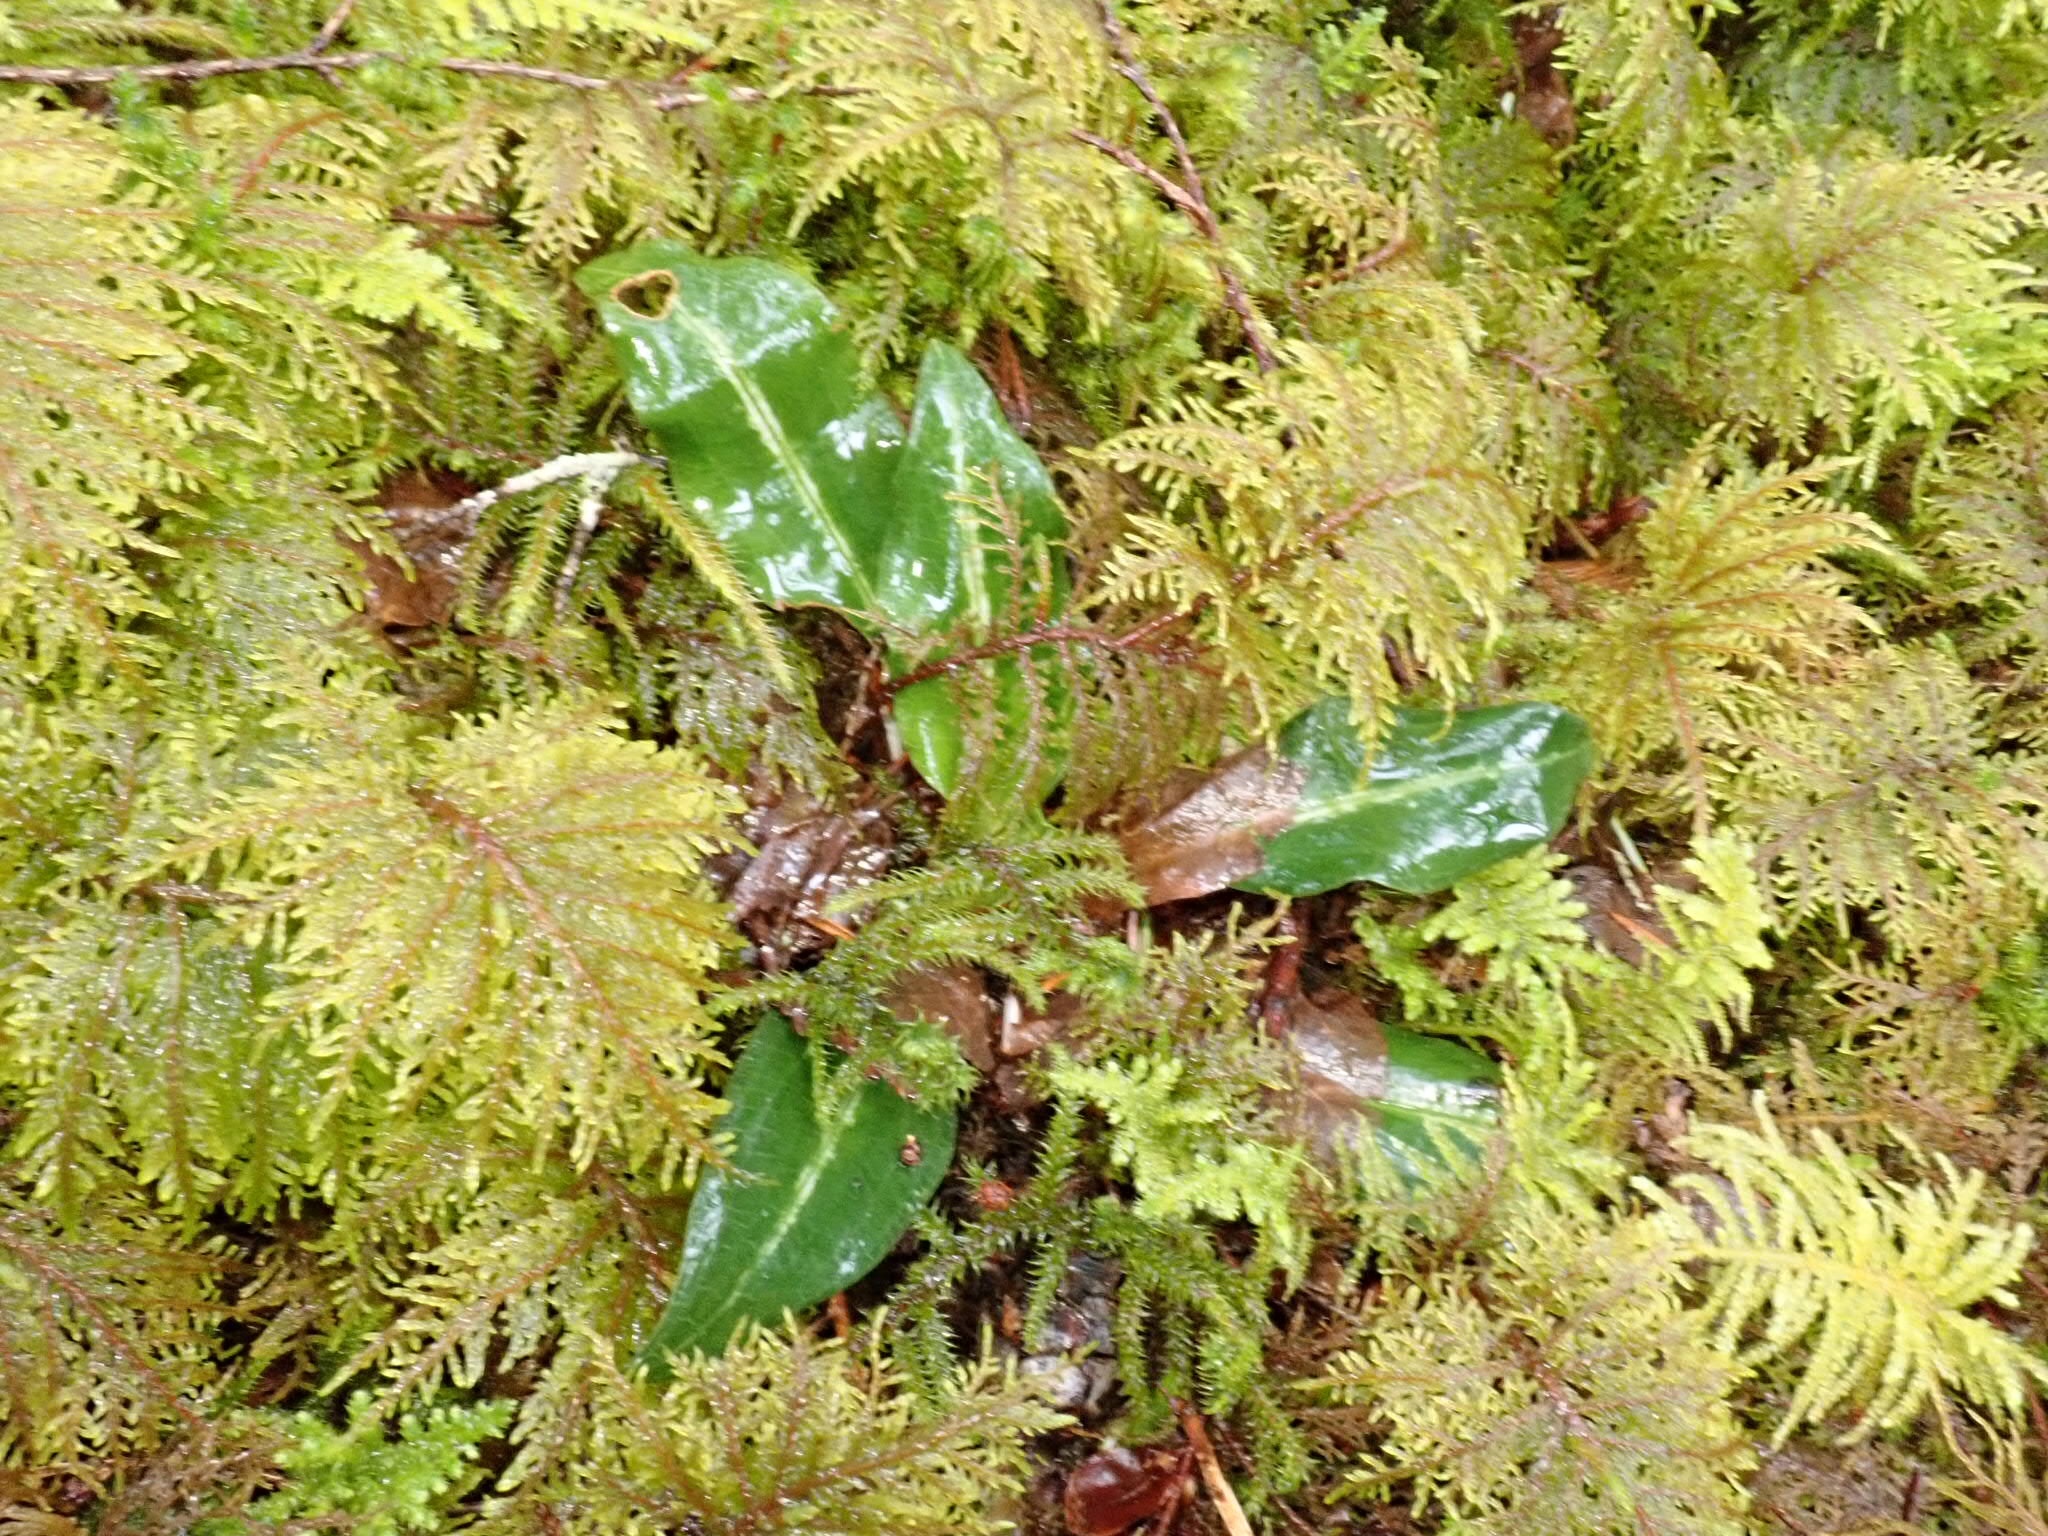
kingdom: Plantae
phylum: Tracheophyta
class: Liliopsida
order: Asparagales
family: Orchidaceae
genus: Goodyera
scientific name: Goodyera oblongifolia
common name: Giant rattlesnake-plantain
